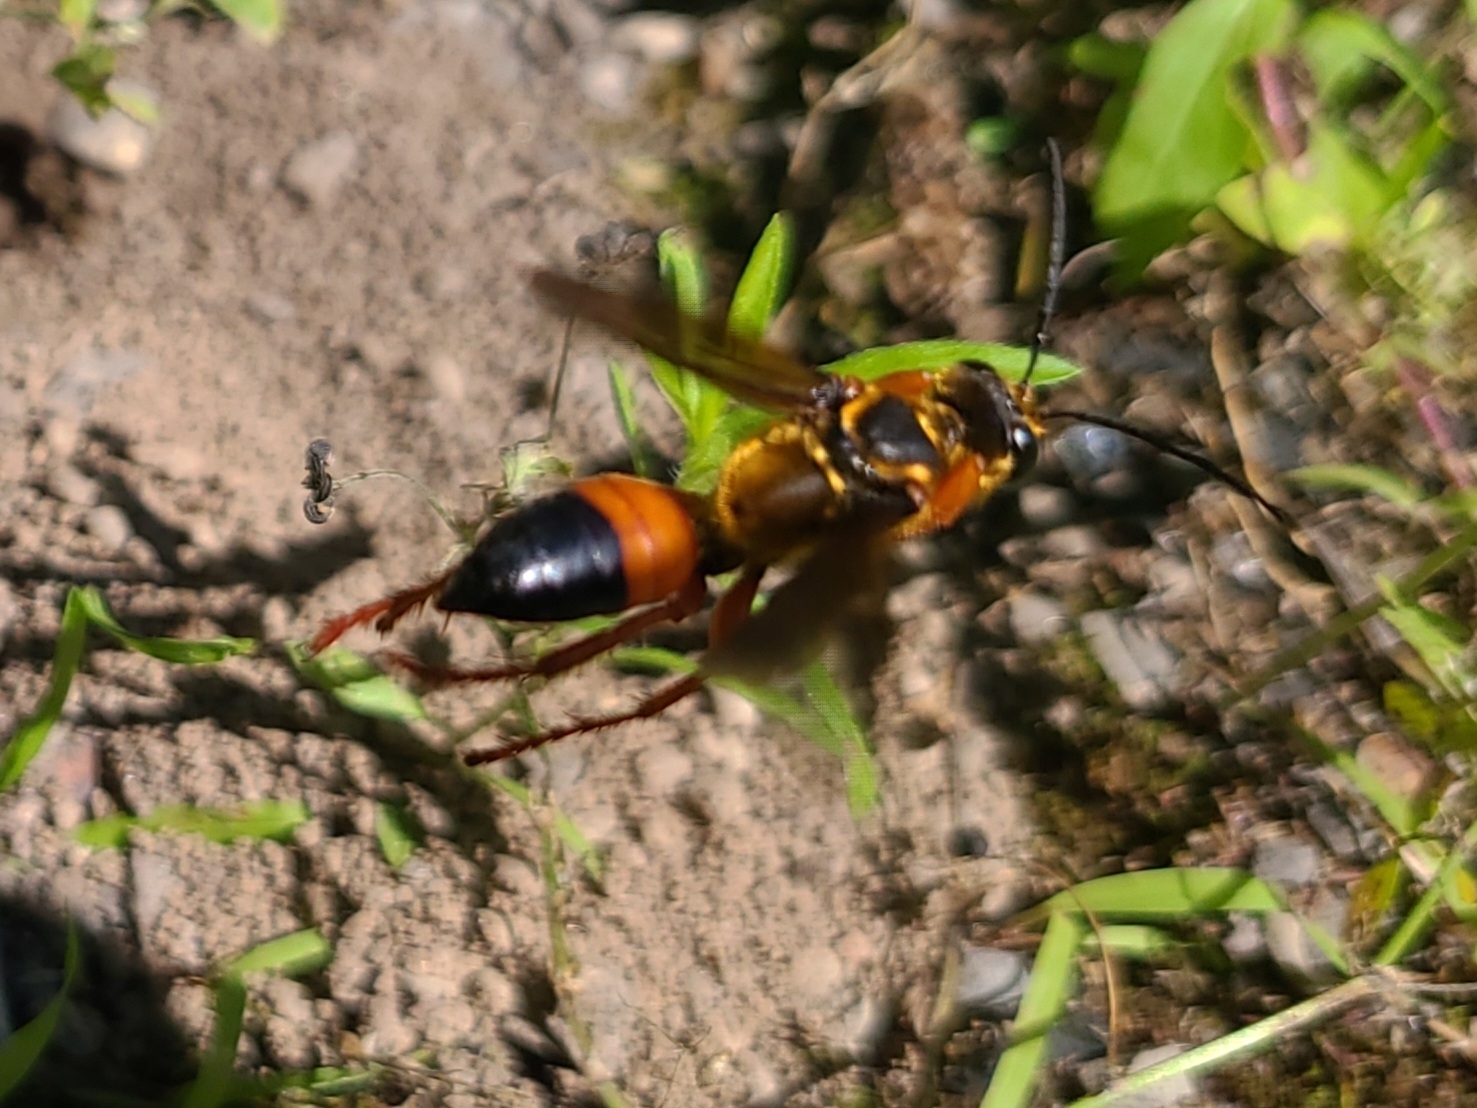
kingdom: Animalia
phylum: Arthropoda
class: Insecta
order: Hymenoptera
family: Sphecidae
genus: Sphex
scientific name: Sphex ichneumoneus
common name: Great golden digger wasp
